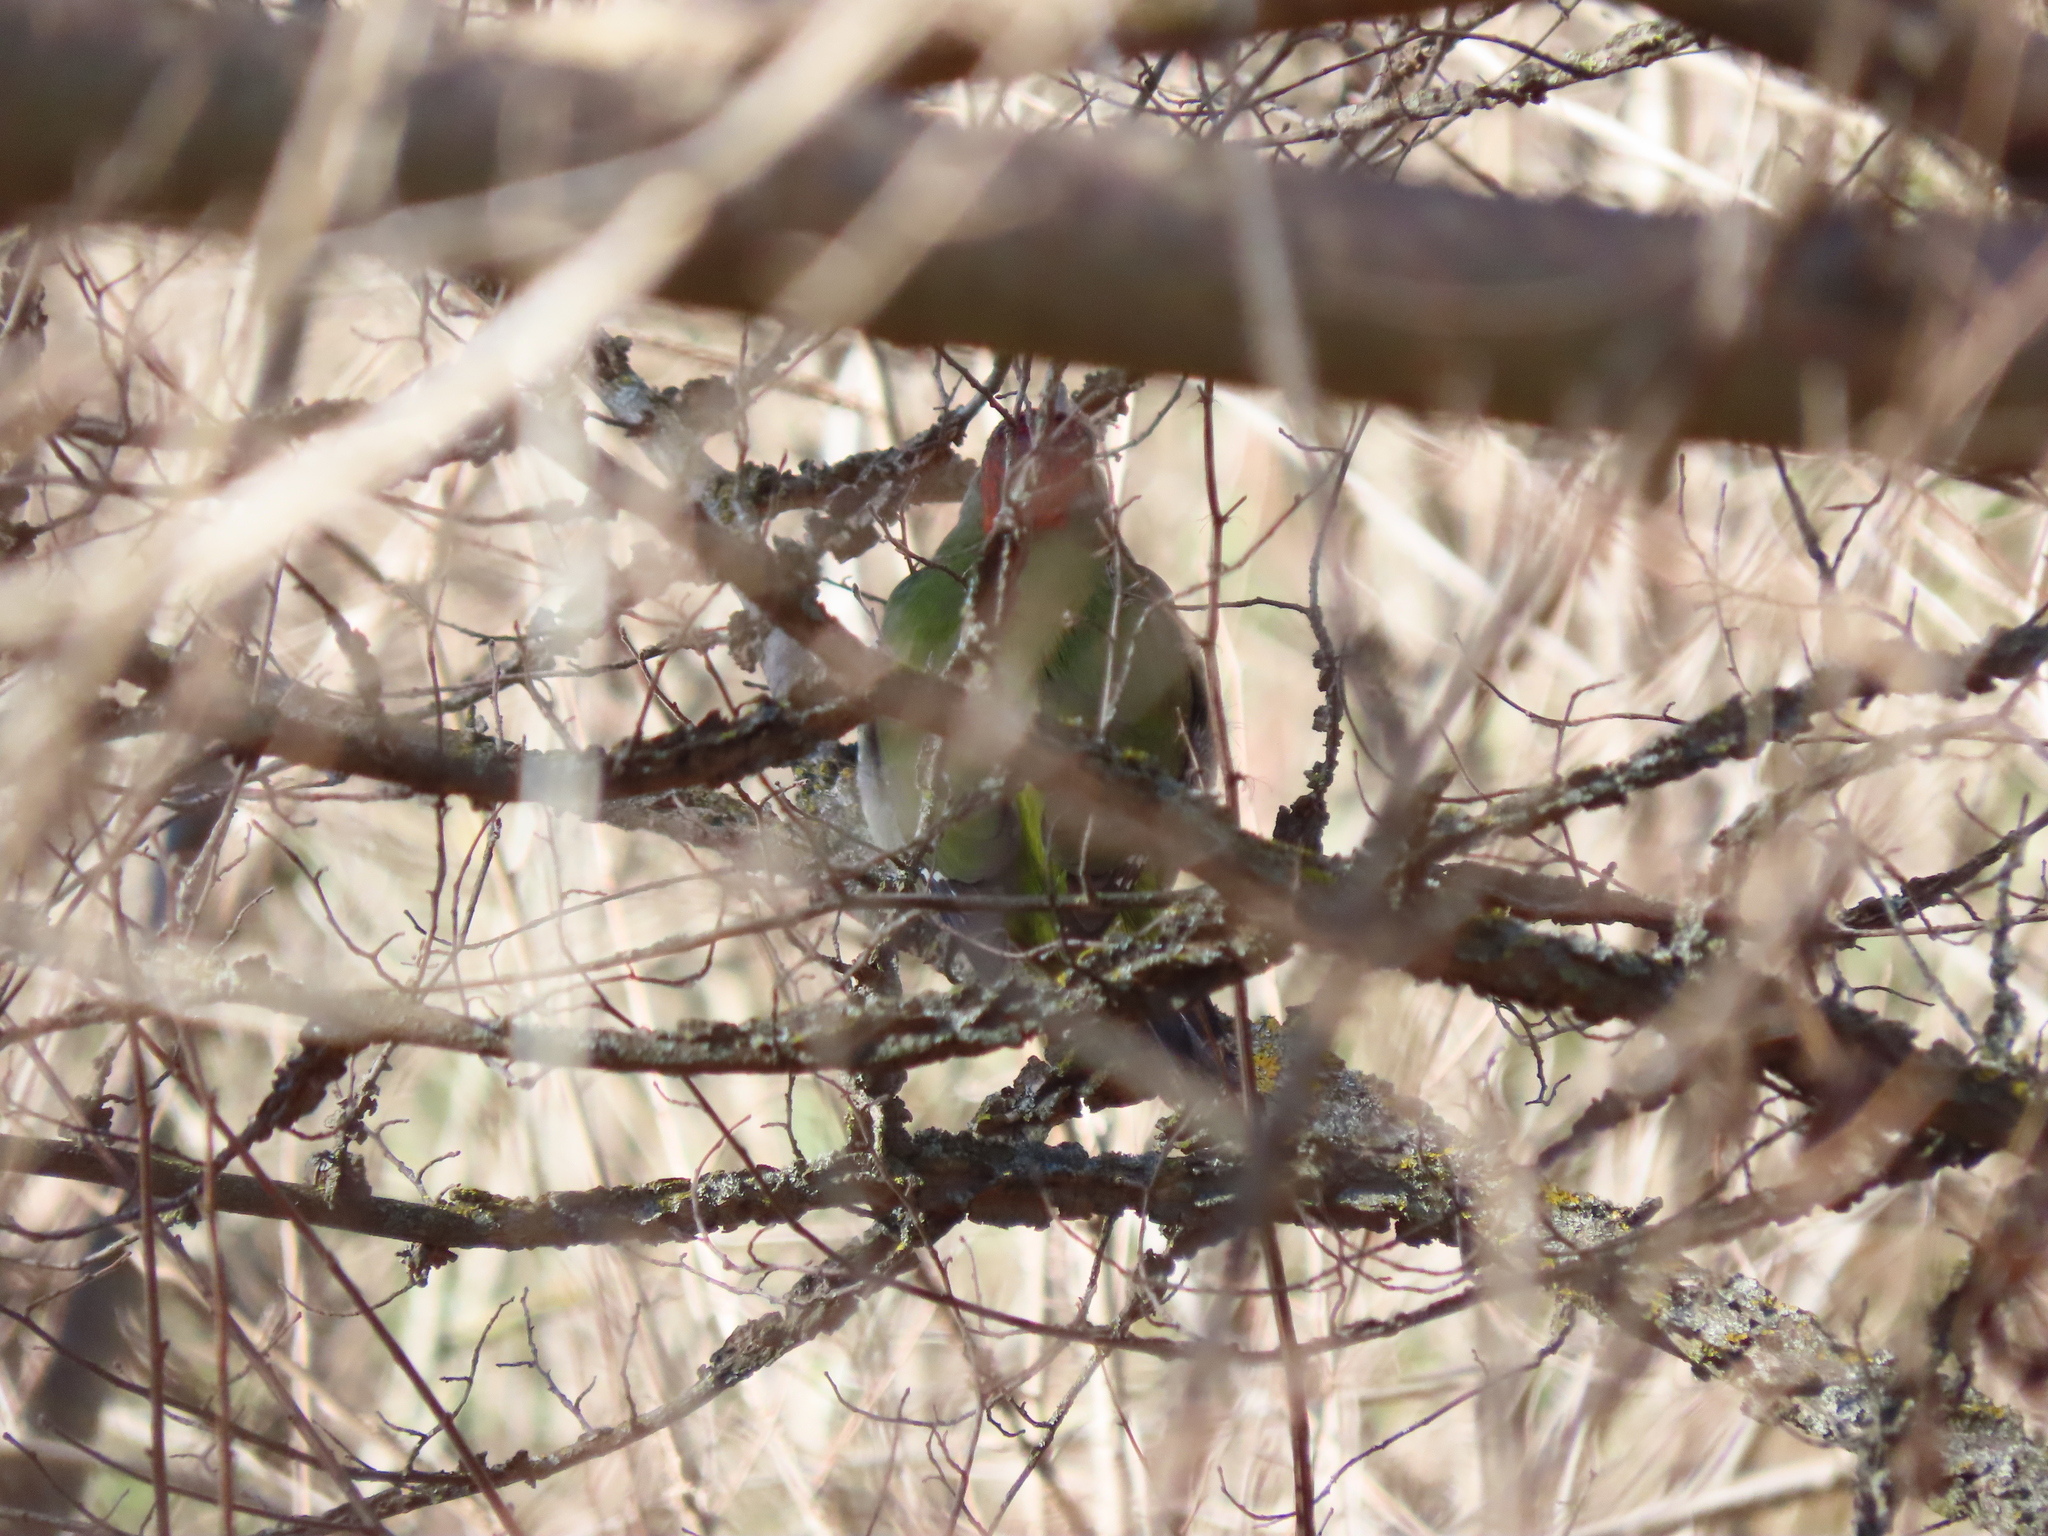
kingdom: Animalia
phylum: Chordata
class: Aves
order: Piciformes
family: Picidae
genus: Picus
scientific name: Picus sharpei
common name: Iberian green woodpecker
